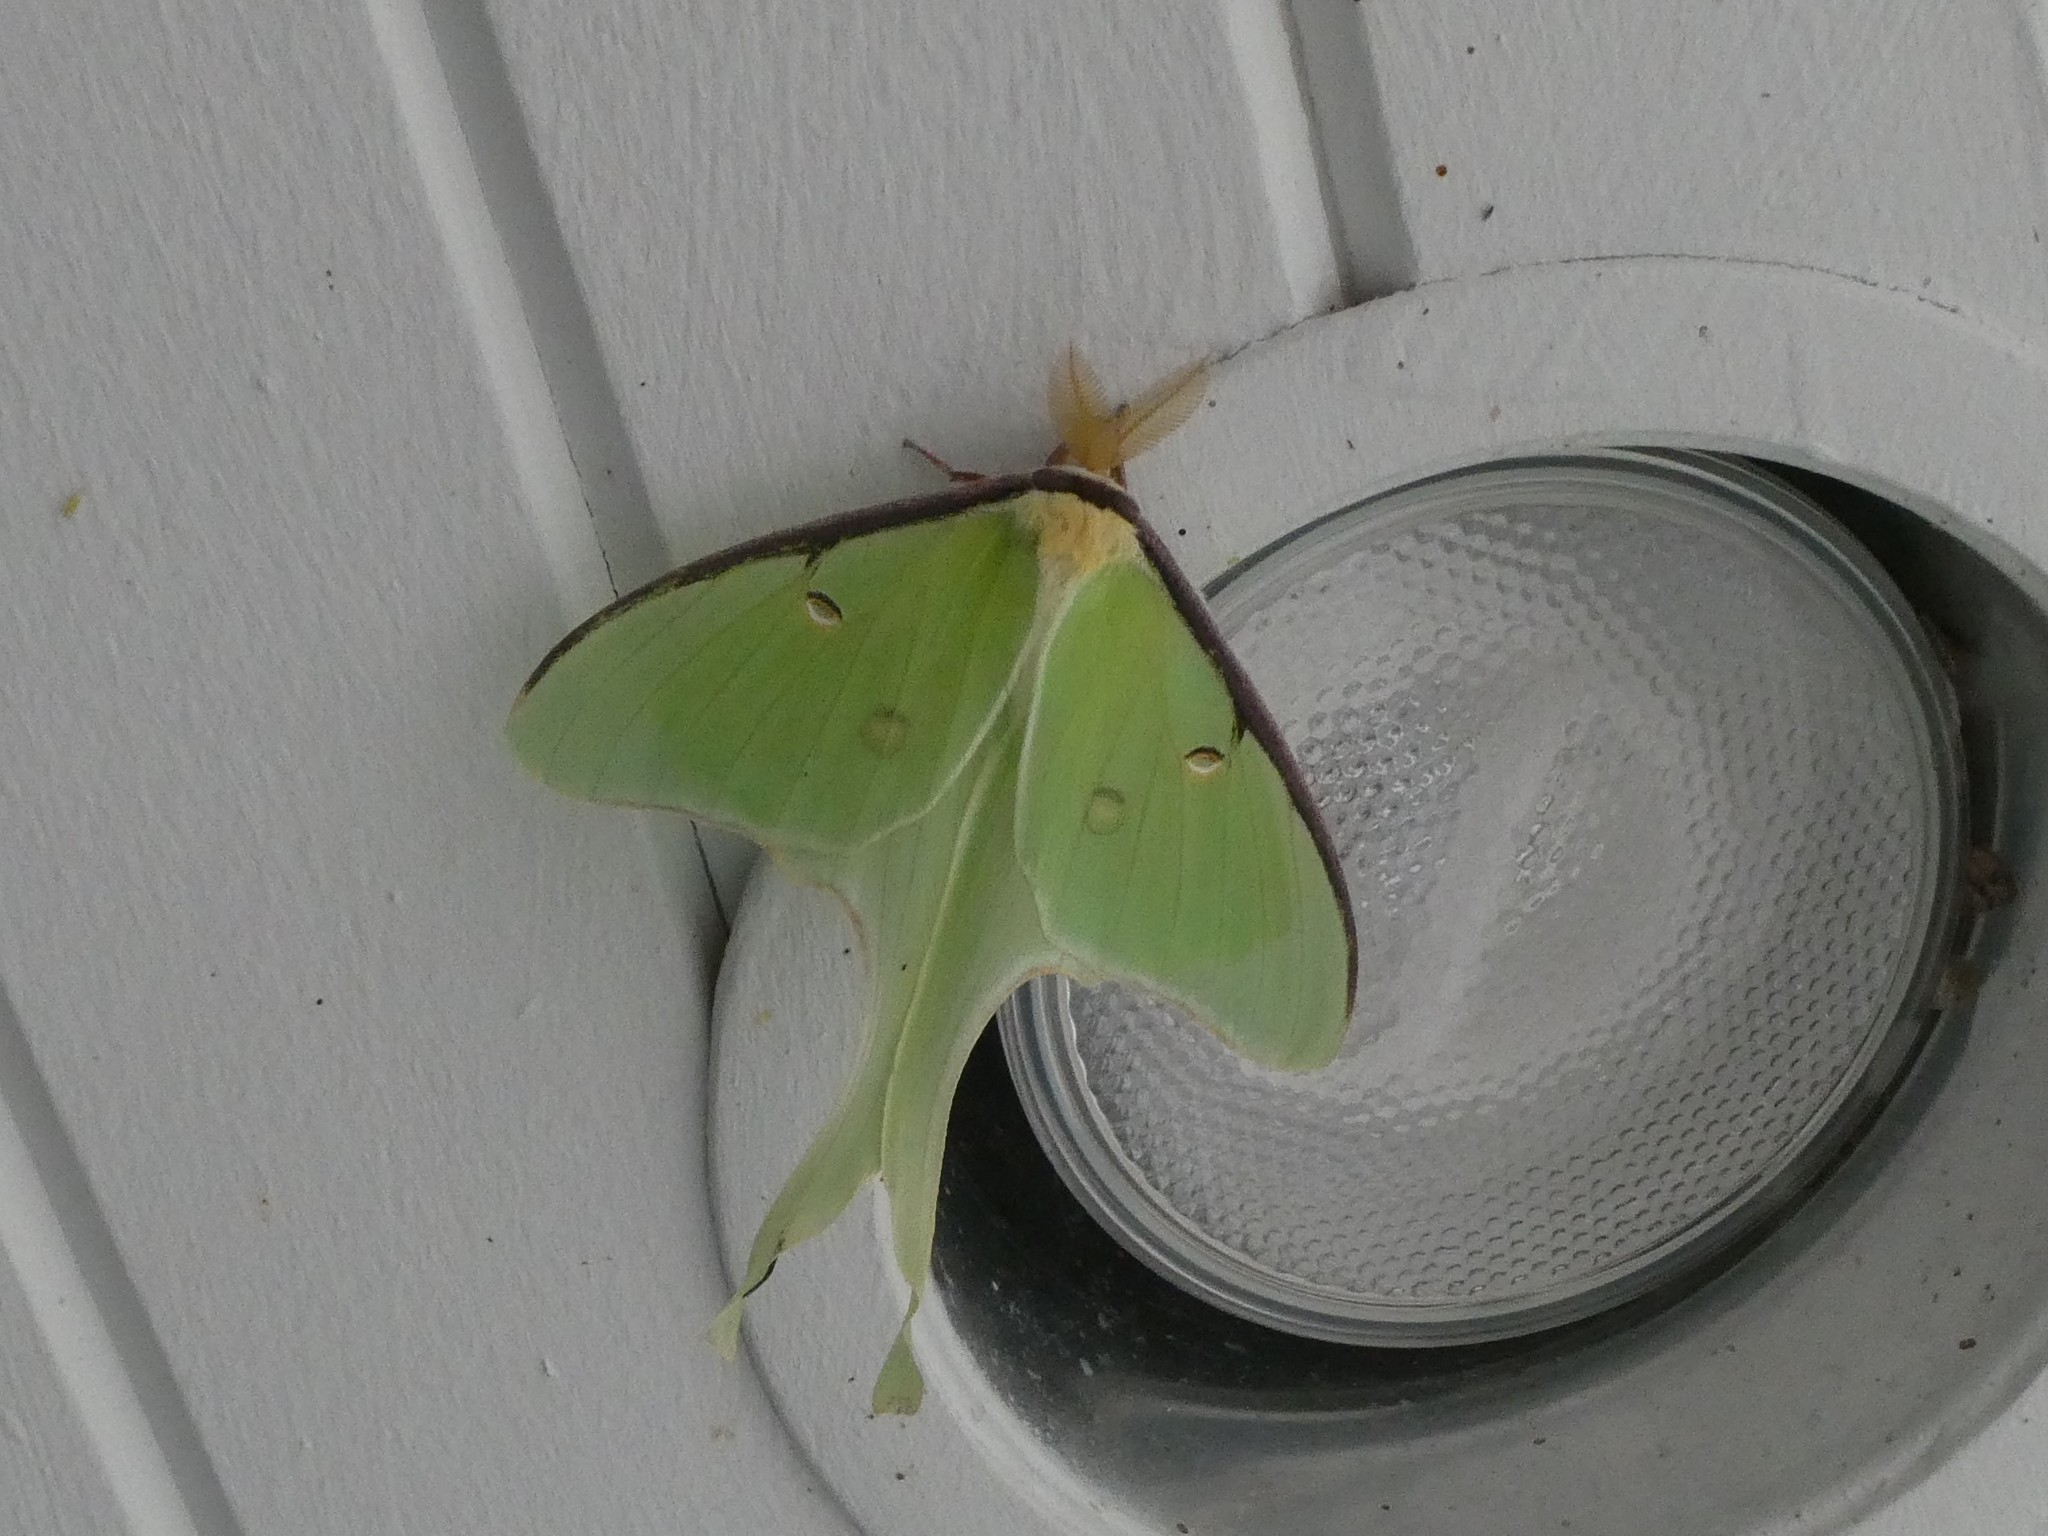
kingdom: Animalia
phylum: Arthropoda
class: Insecta
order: Lepidoptera
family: Saturniidae
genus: Actias
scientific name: Actias luna
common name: Luna moth
